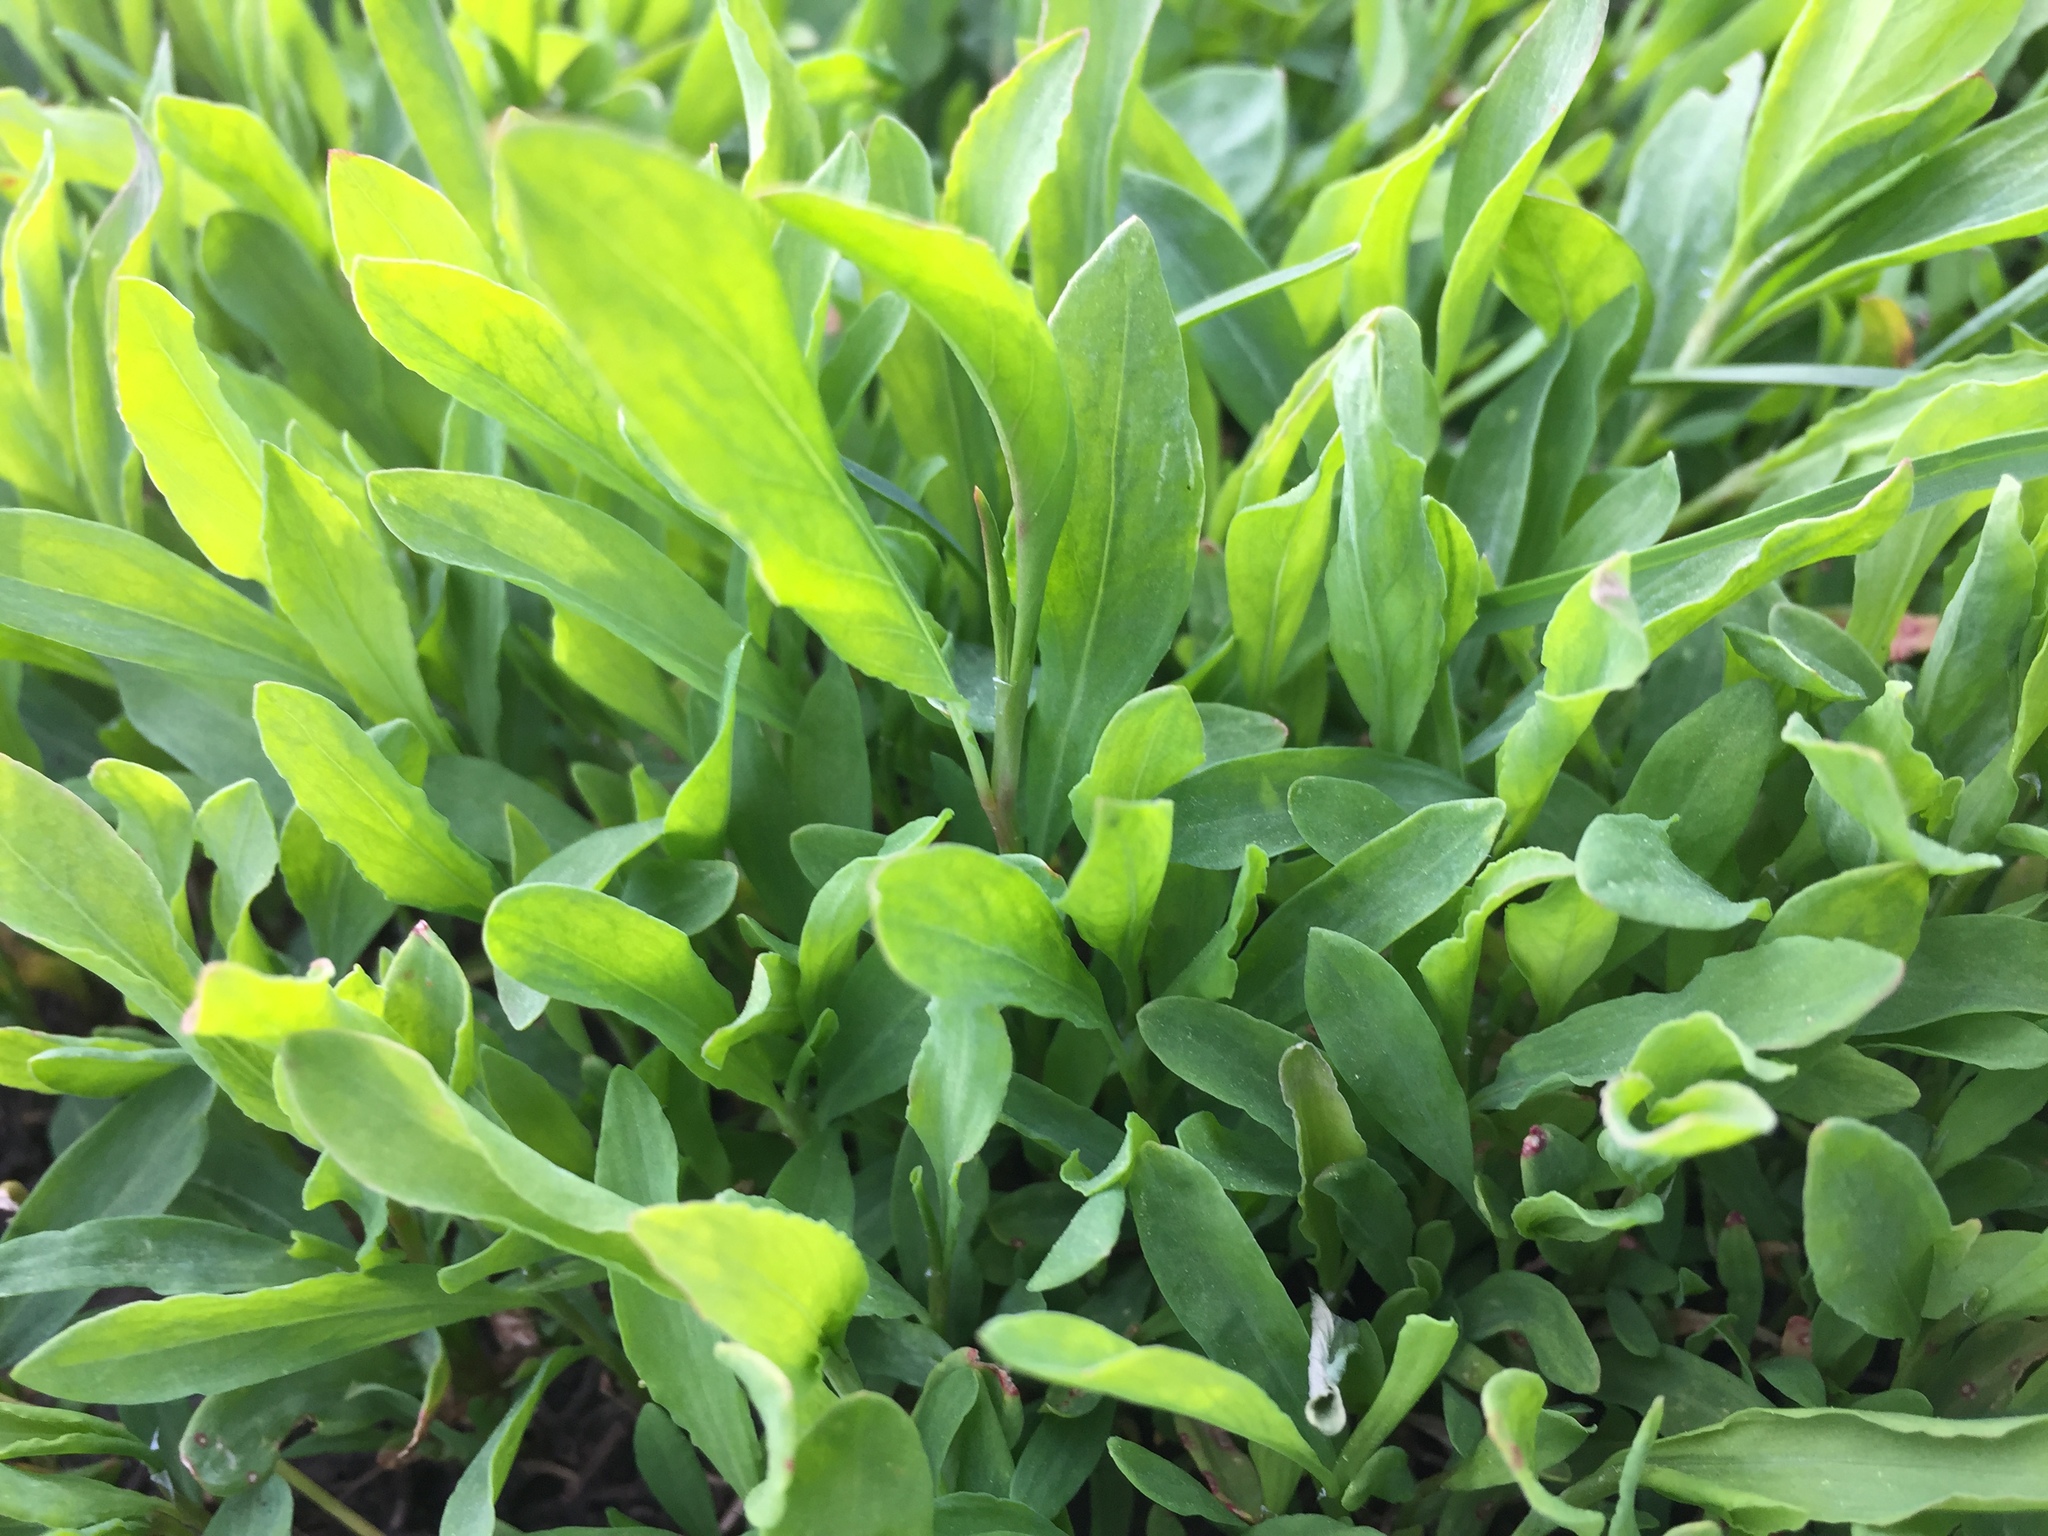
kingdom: Plantae
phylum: Tracheophyta
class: Magnoliopsida
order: Caryophyllales
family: Polygonaceae
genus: Polygonum
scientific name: Polygonum
